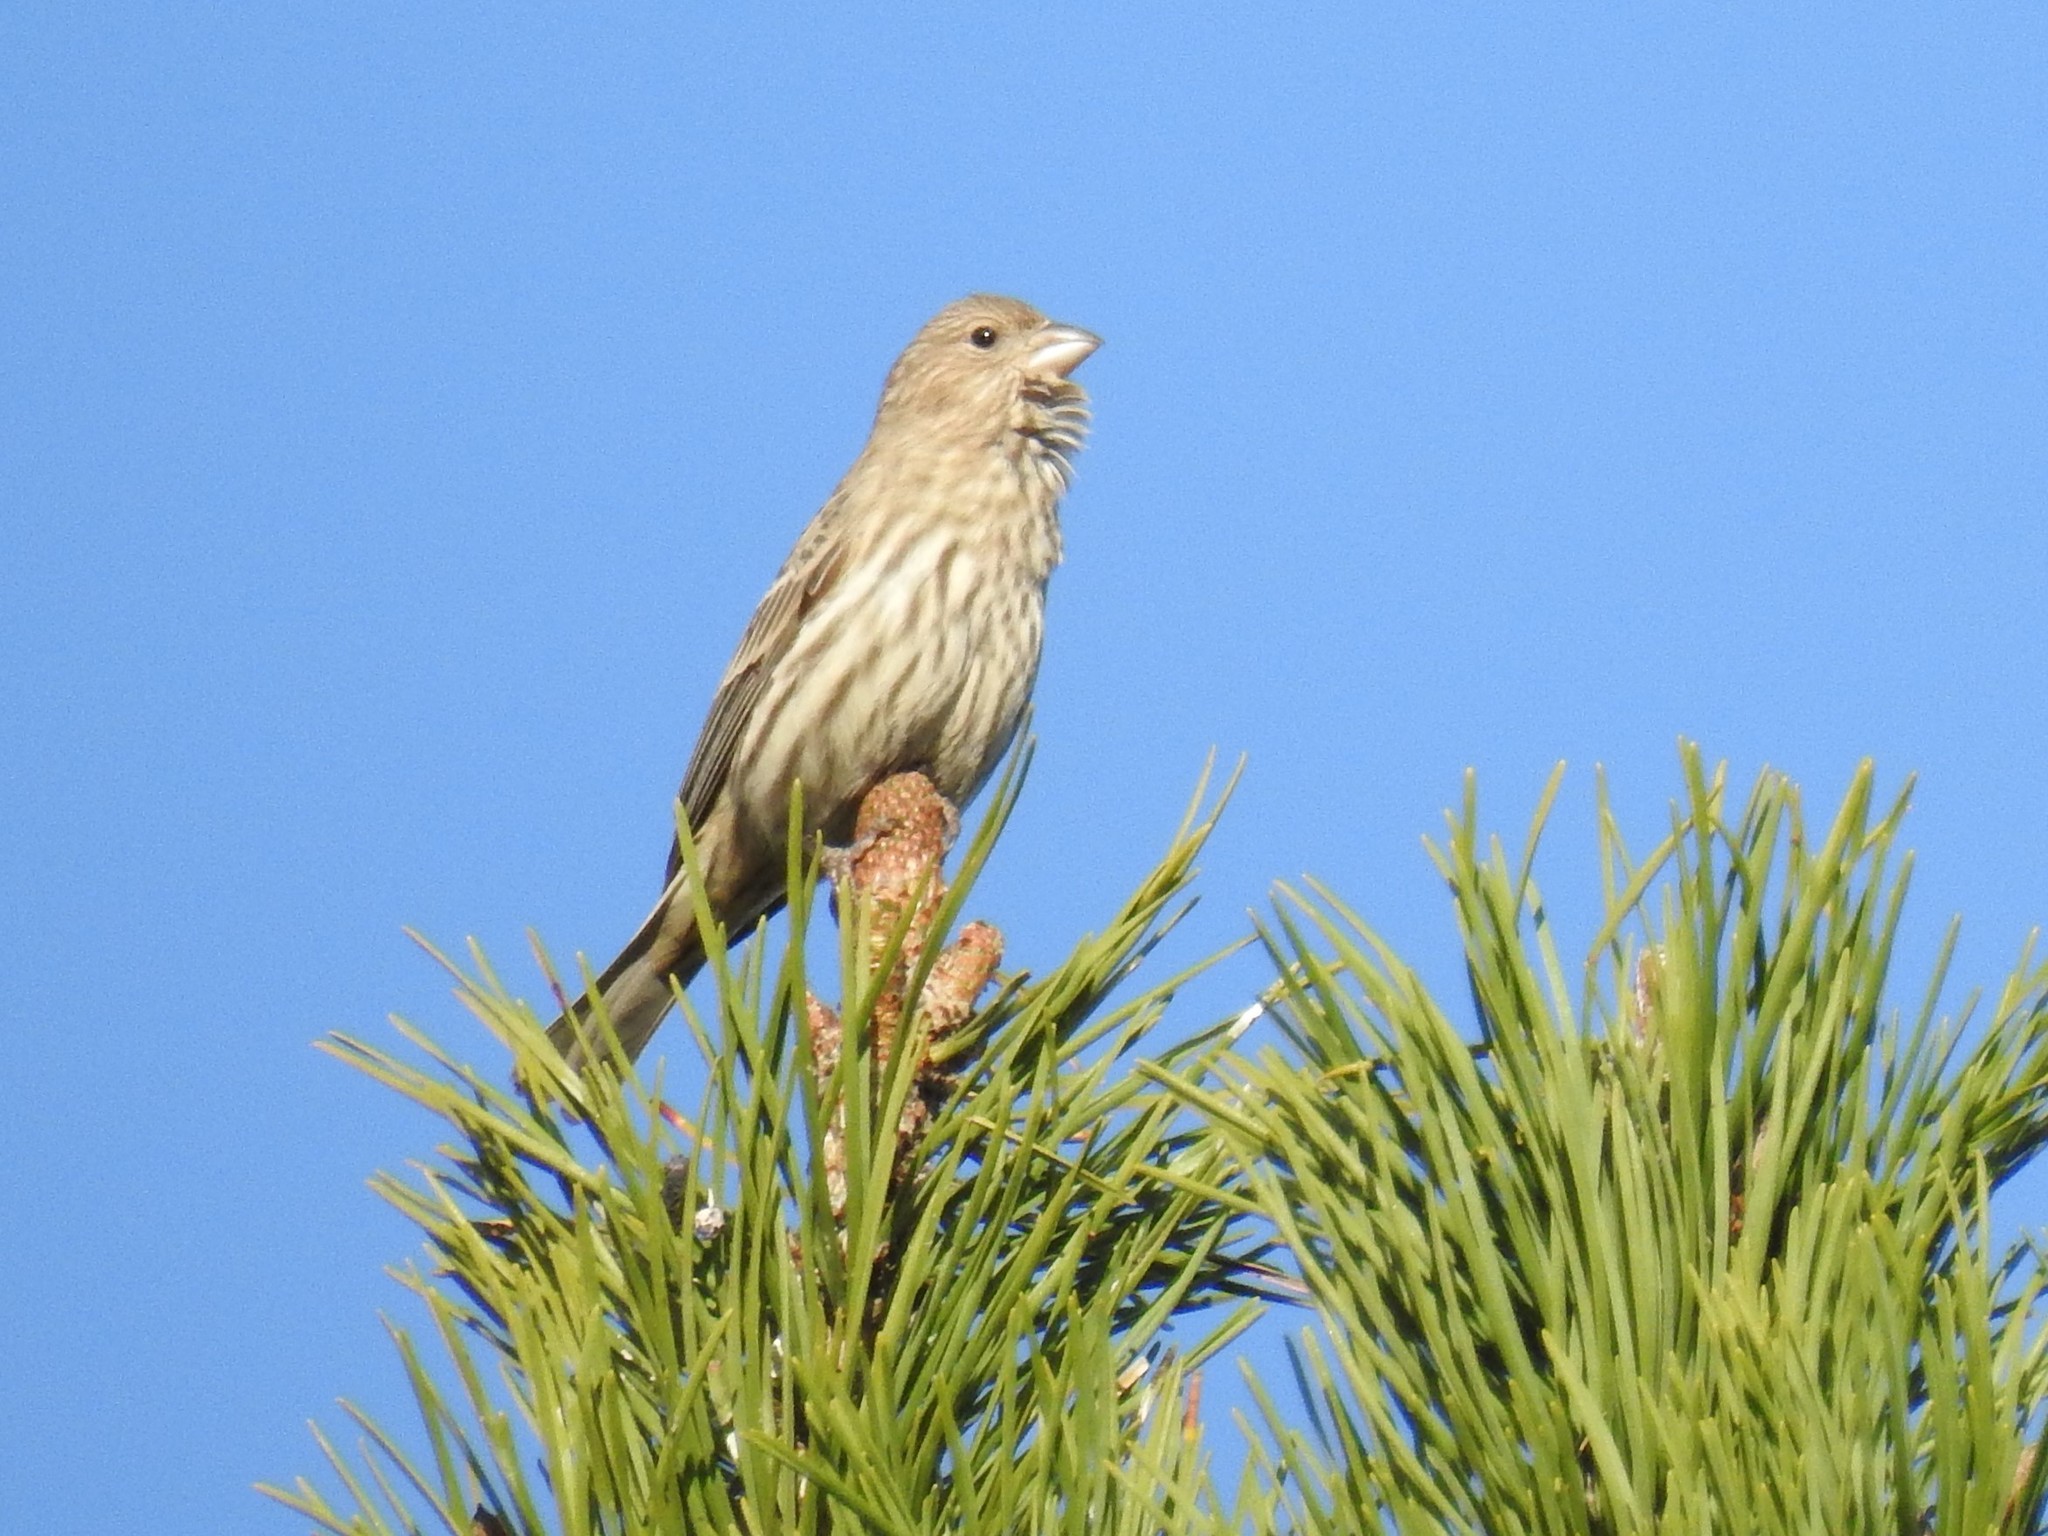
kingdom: Animalia
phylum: Chordata
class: Aves
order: Passeriformes
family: Fringillidae
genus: Haemorhous
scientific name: Haemorhous mexicanus
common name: House finch
